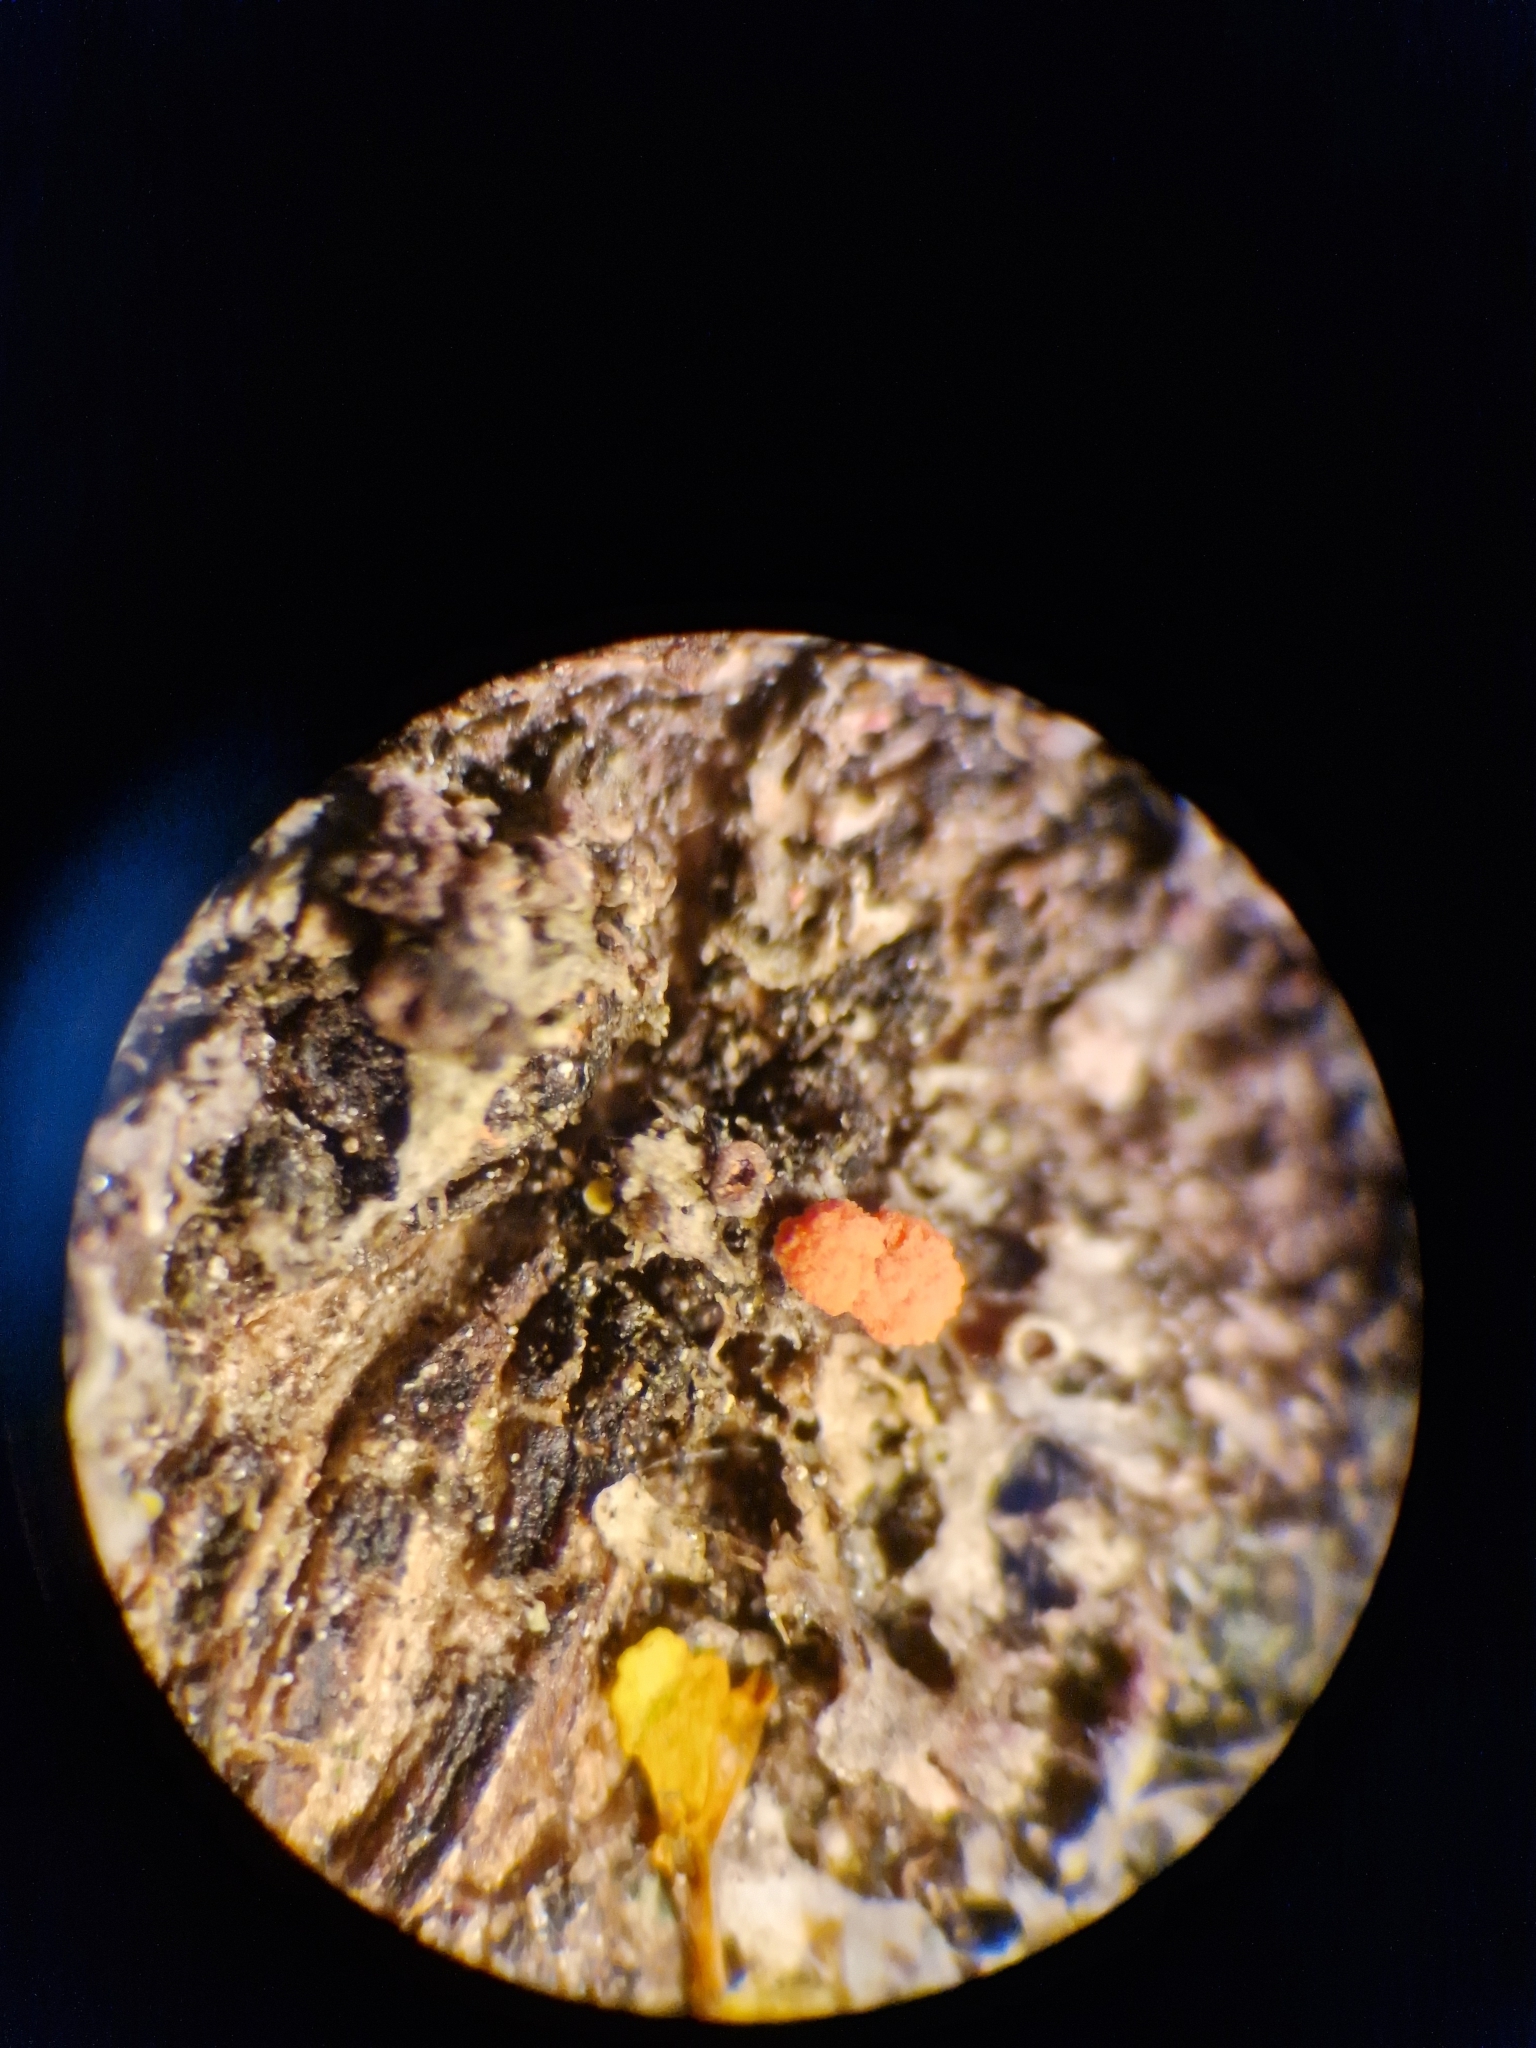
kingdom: Fungi
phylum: Ascomycota
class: Sordariomycetes
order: Hypocreales
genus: Illosporiopsis
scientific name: Illosporiopsis christiansenii
